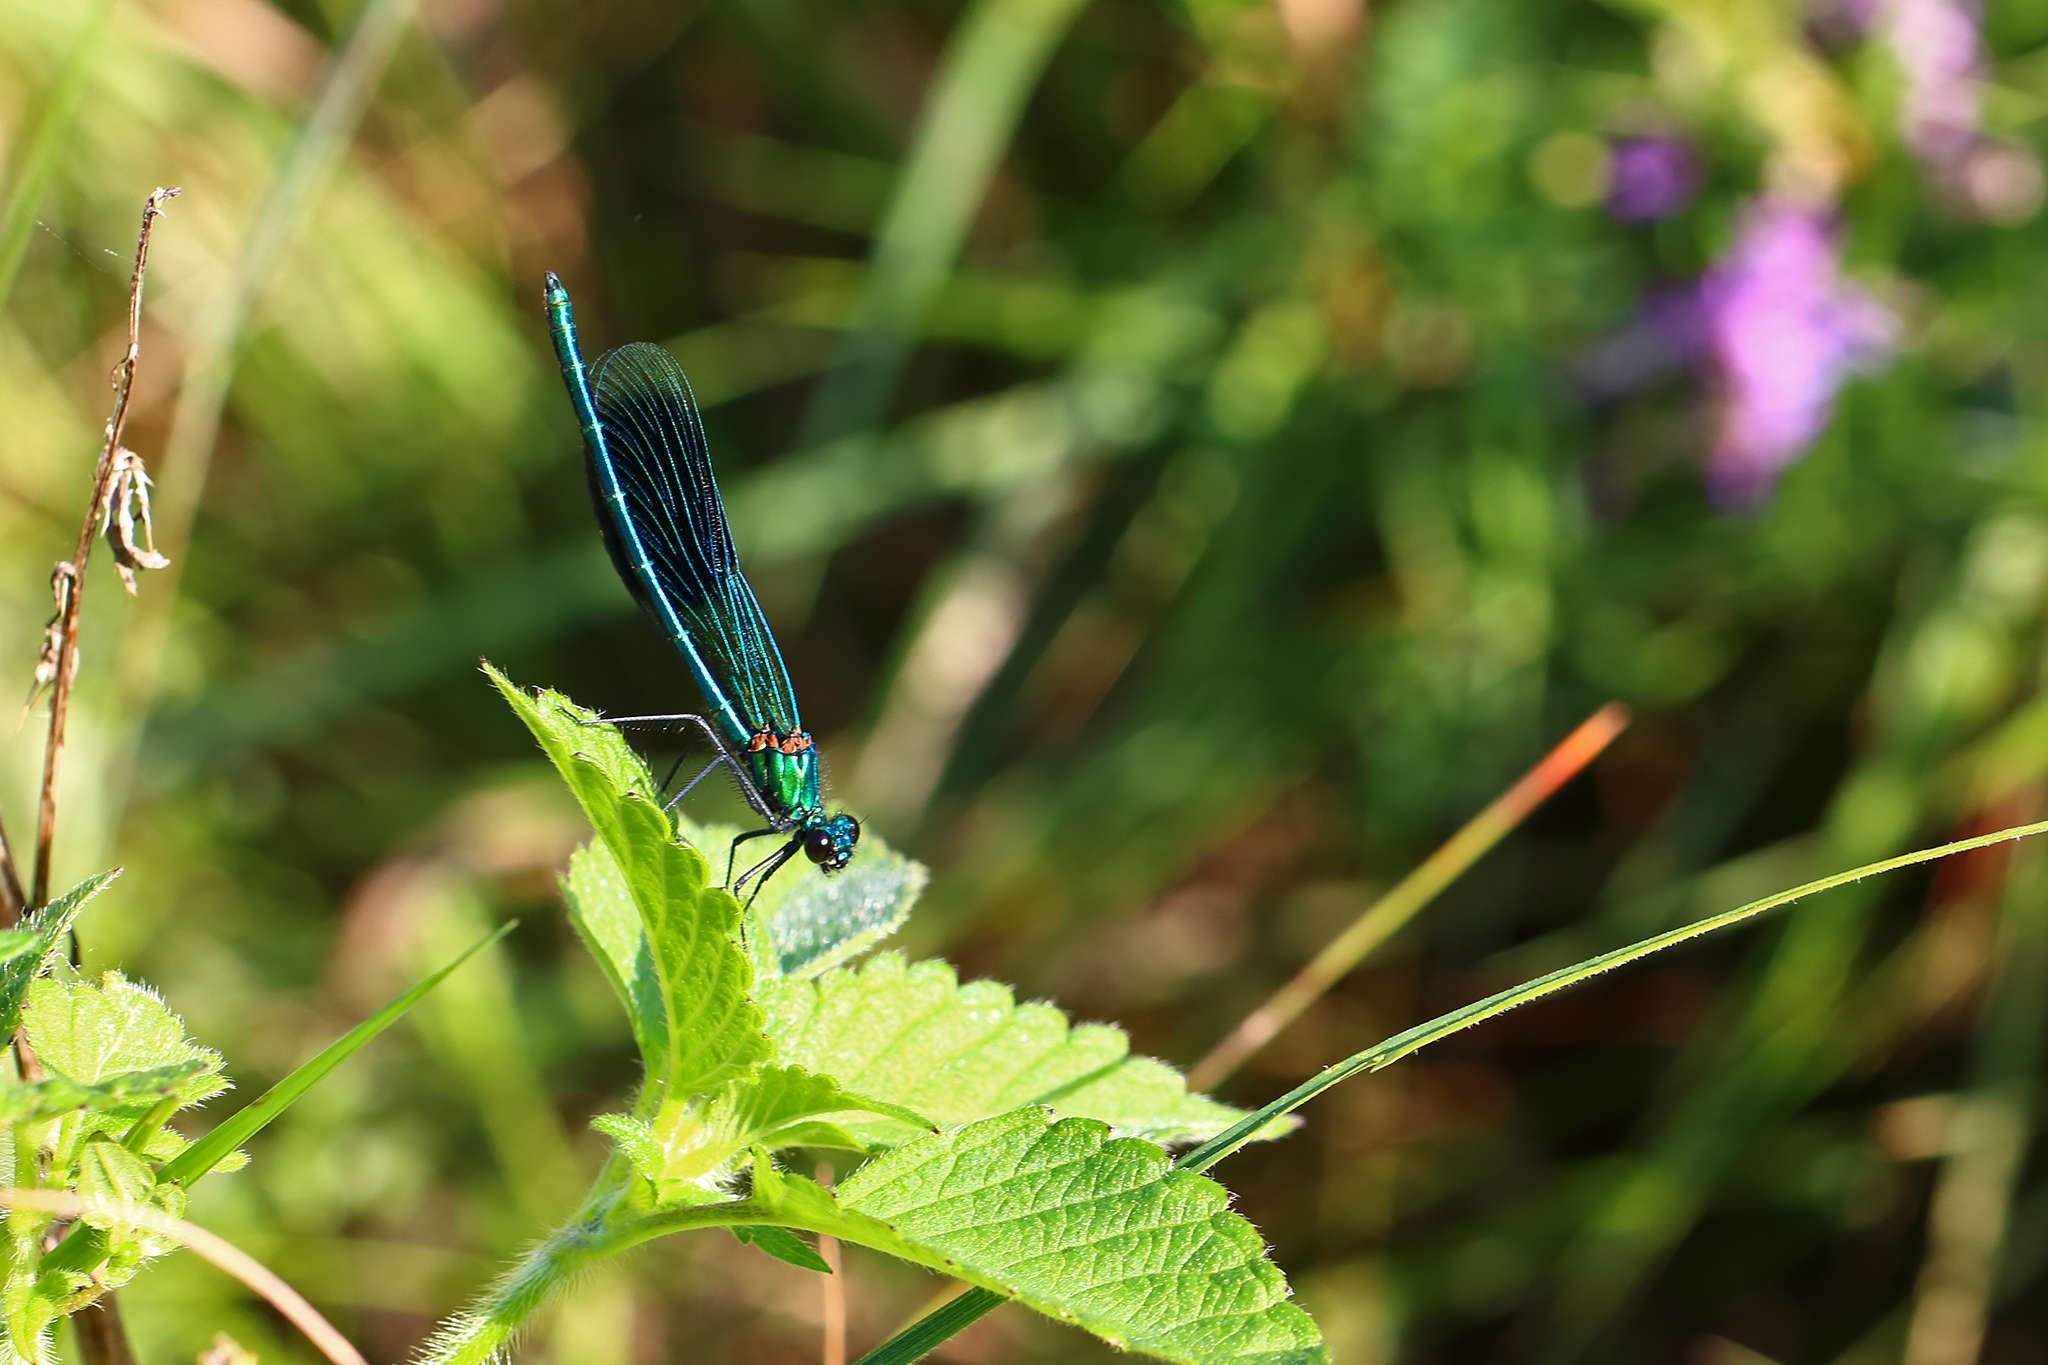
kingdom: Animalia
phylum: Arthropoda
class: Insecta
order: Odonata
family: Calopterygidae
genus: Calopteryx
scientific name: Calopteryx splendens
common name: Banded demoiselle
